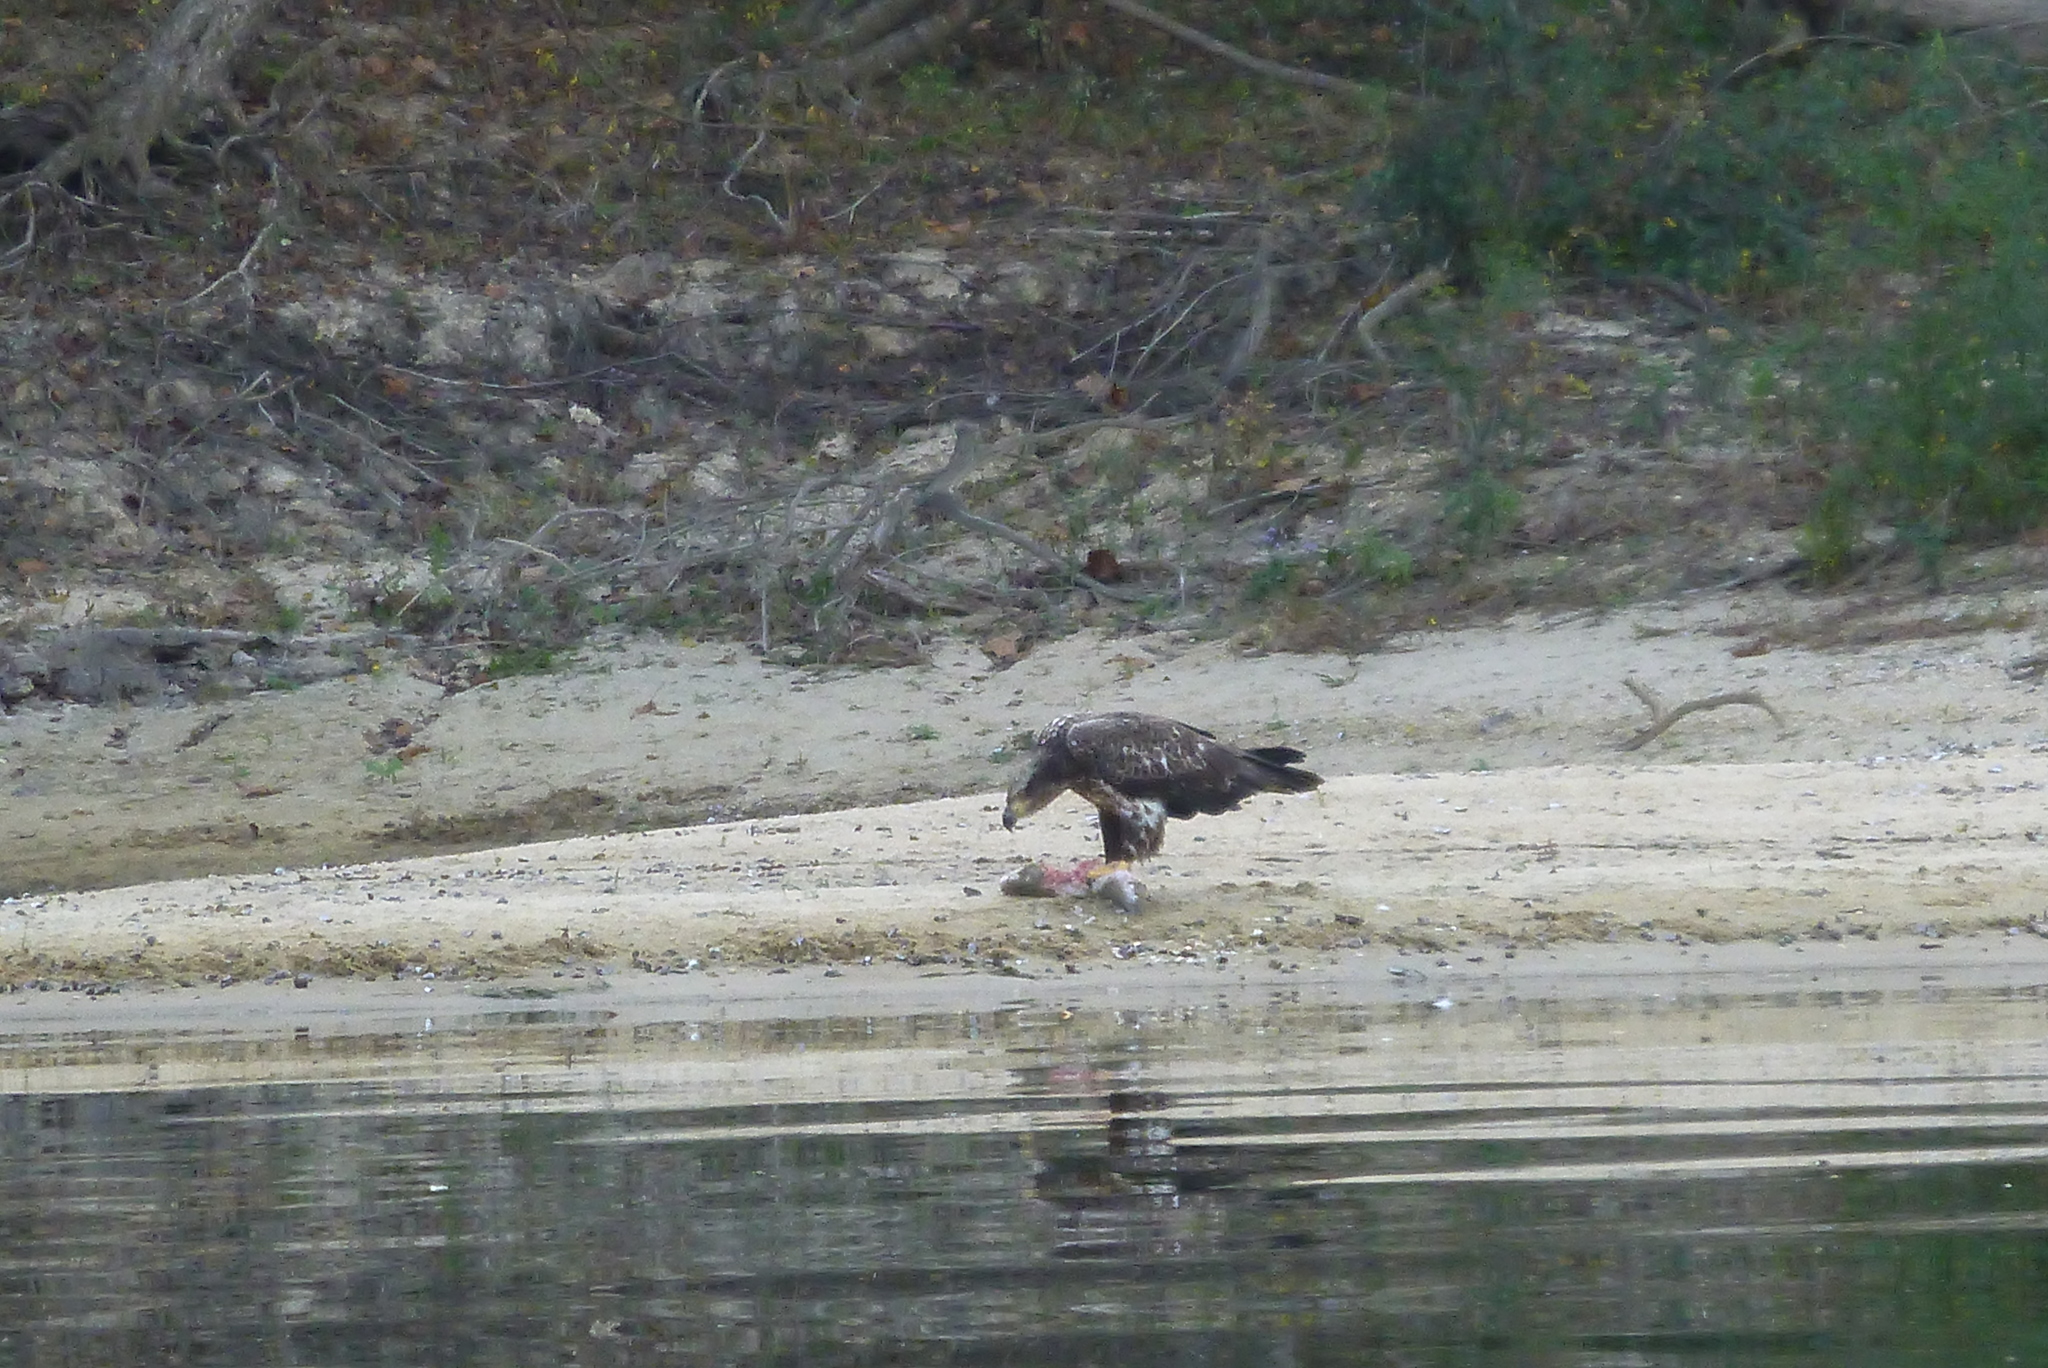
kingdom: Animalia
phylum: Chordata
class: Aves
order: Accipitriformes
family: Accipitridae
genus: Haliaeetus
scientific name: Haliaeetus leucocephalus
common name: Bald eagle
